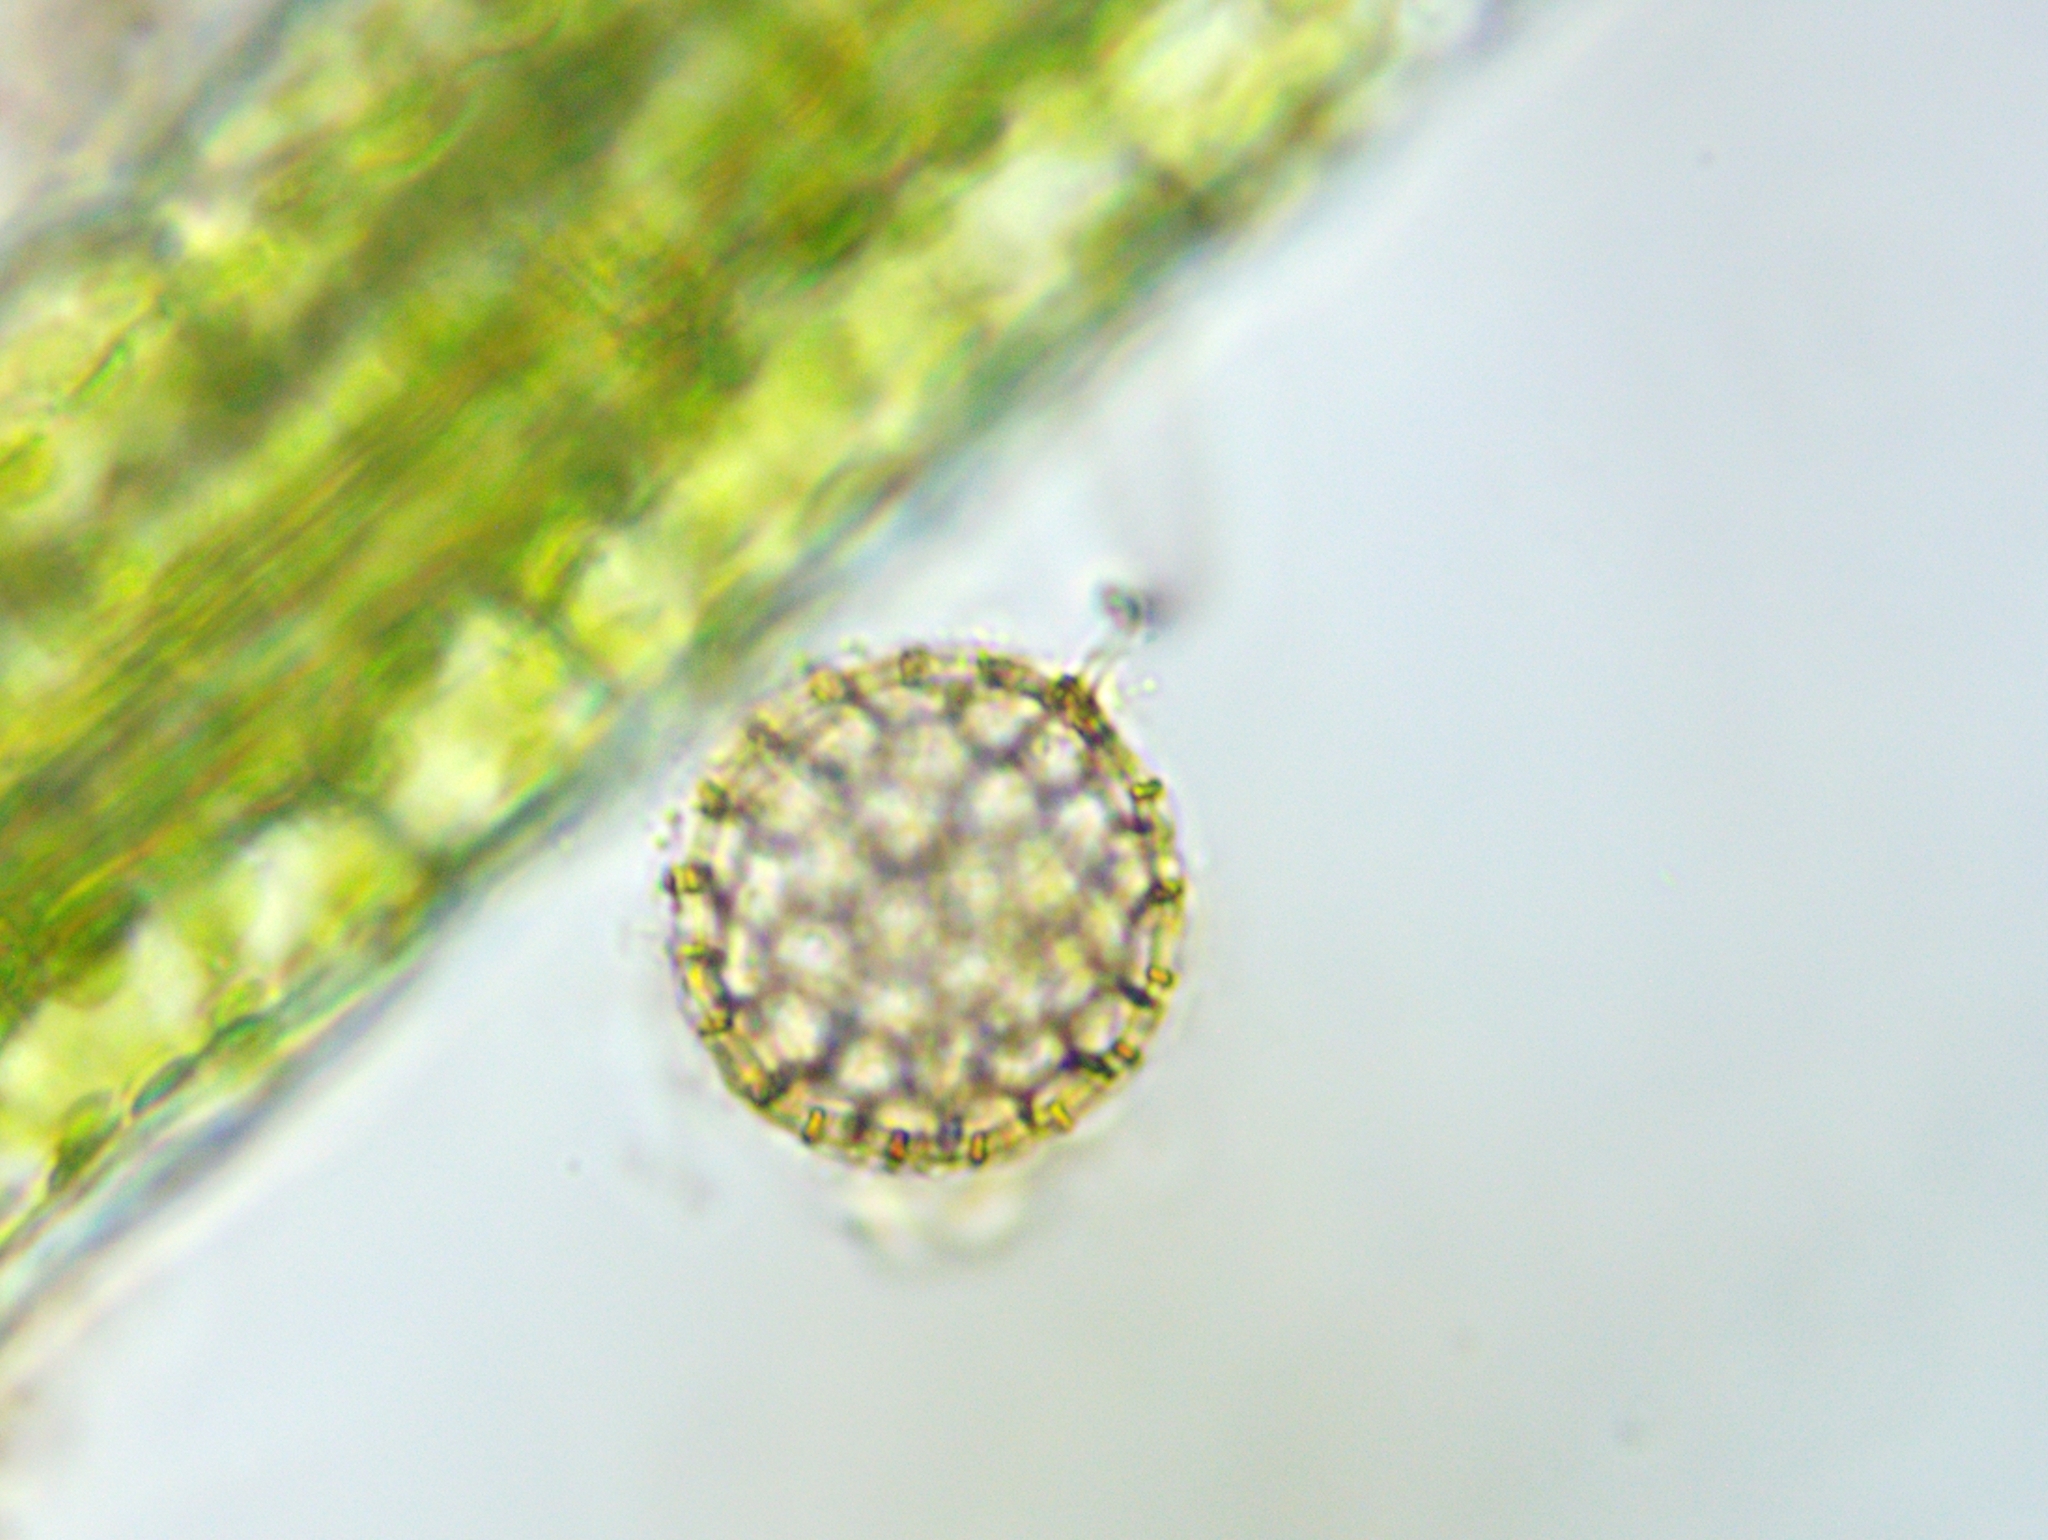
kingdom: Chromista
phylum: Heliozoa
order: Desmothoracida
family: Clathrulinidae
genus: Clathrulina
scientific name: Clathrulina elegans
